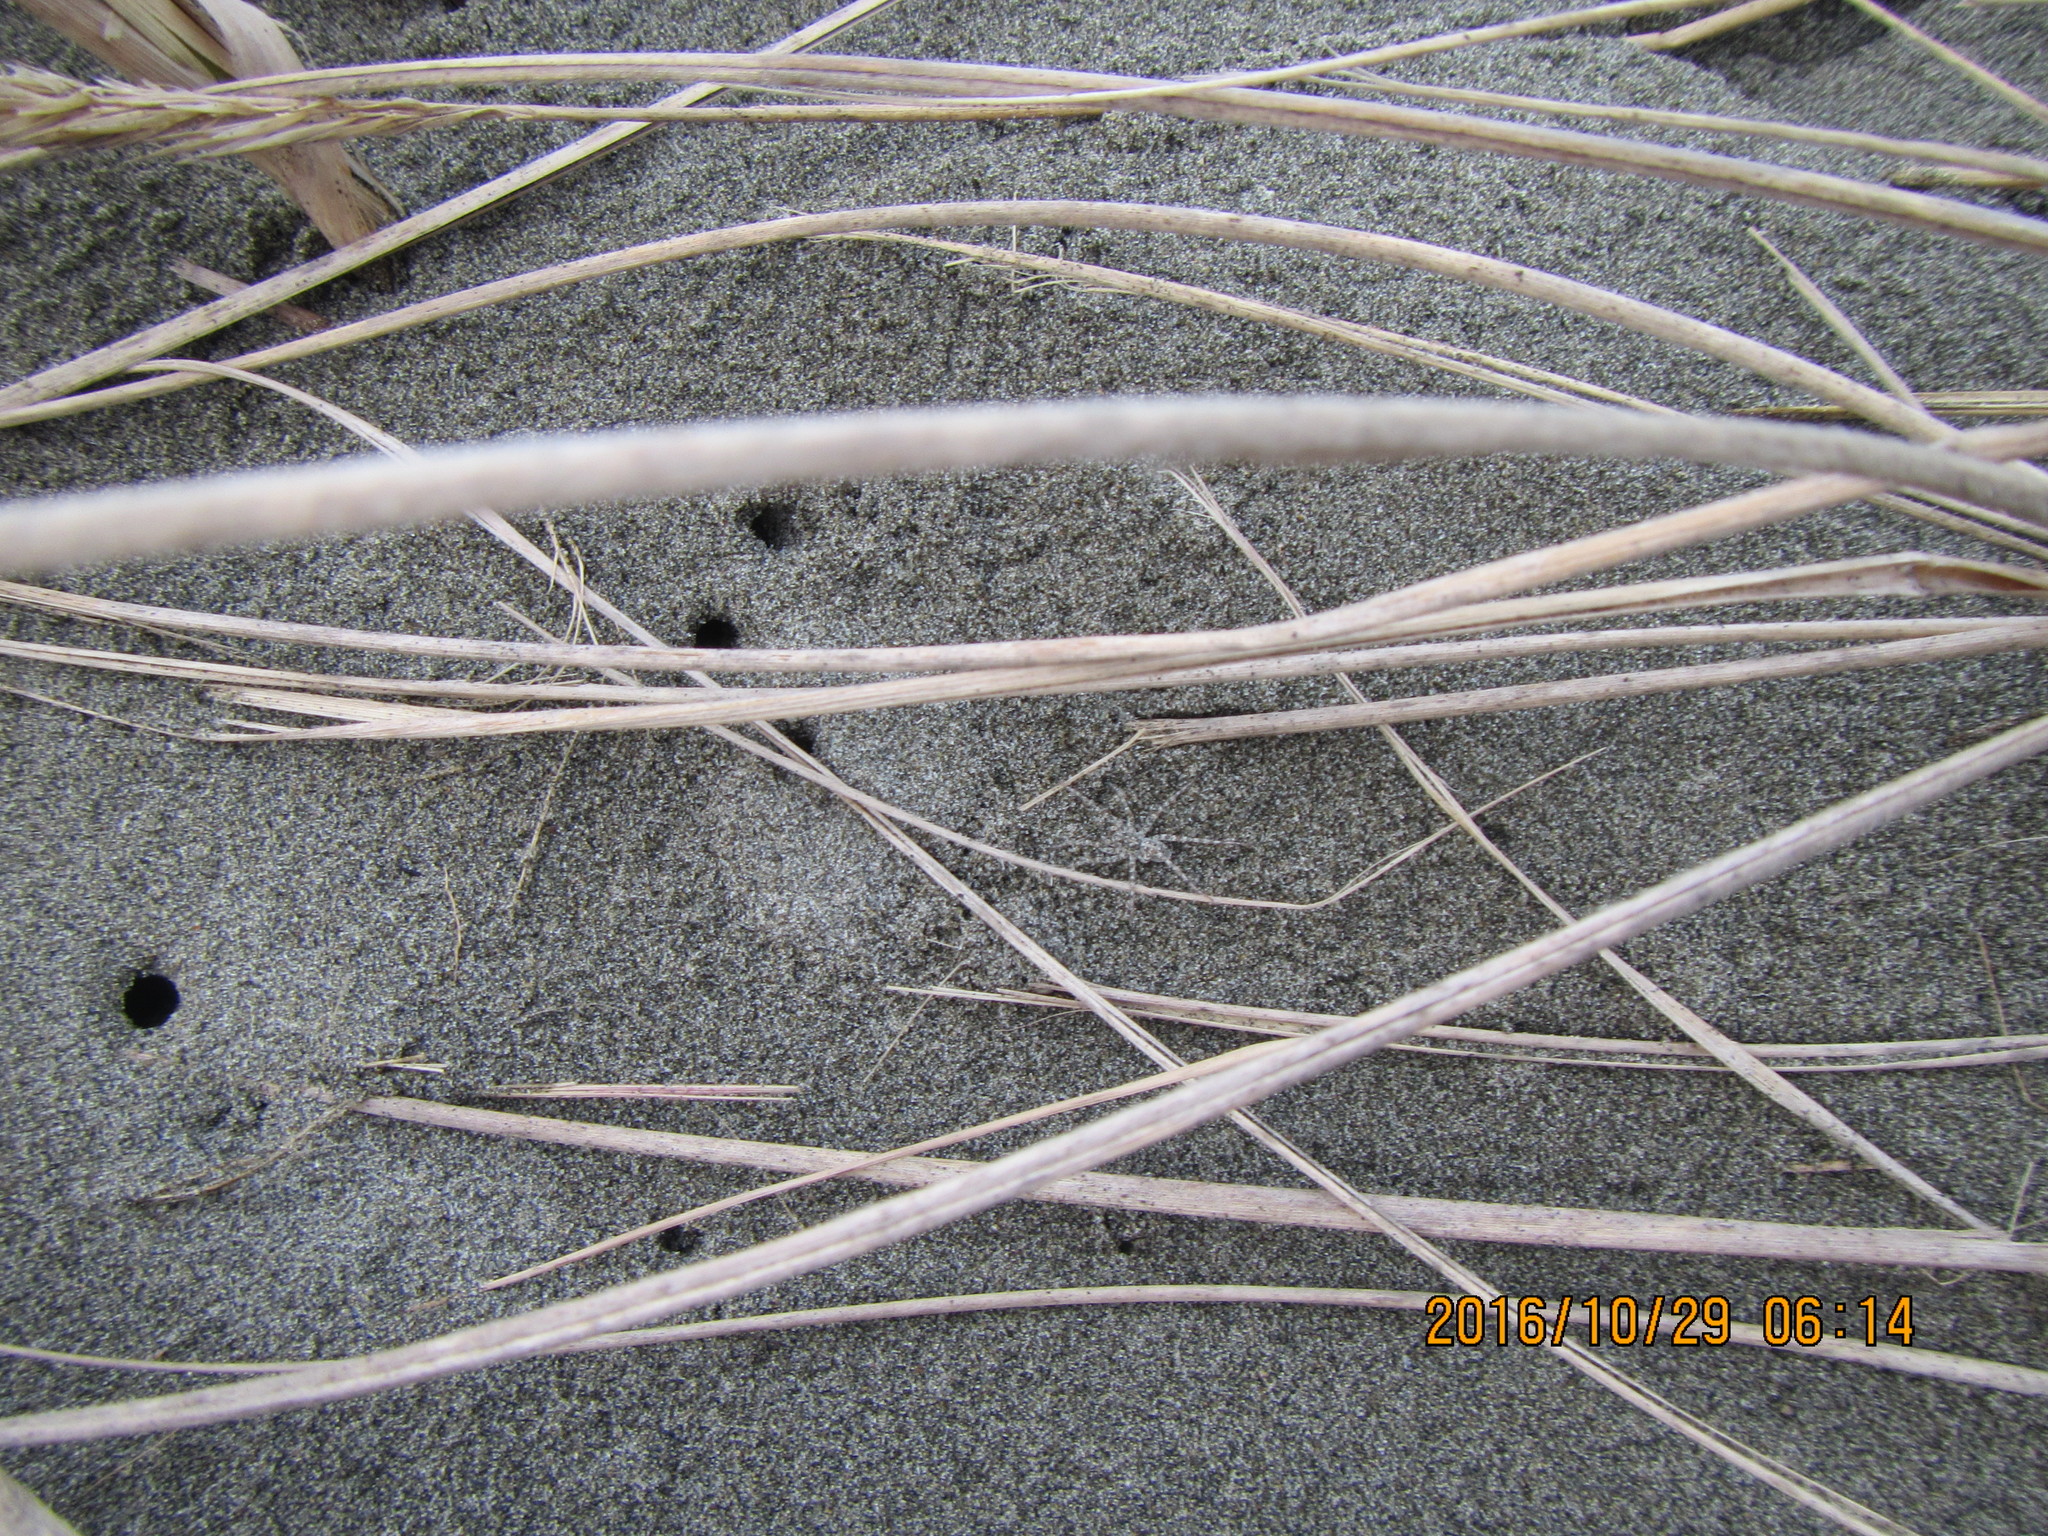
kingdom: Animalia
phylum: Arthropoda
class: Arachnida
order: Araneae
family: Lycosidae
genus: Anoteropsis
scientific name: Anoteropsis litoralis
